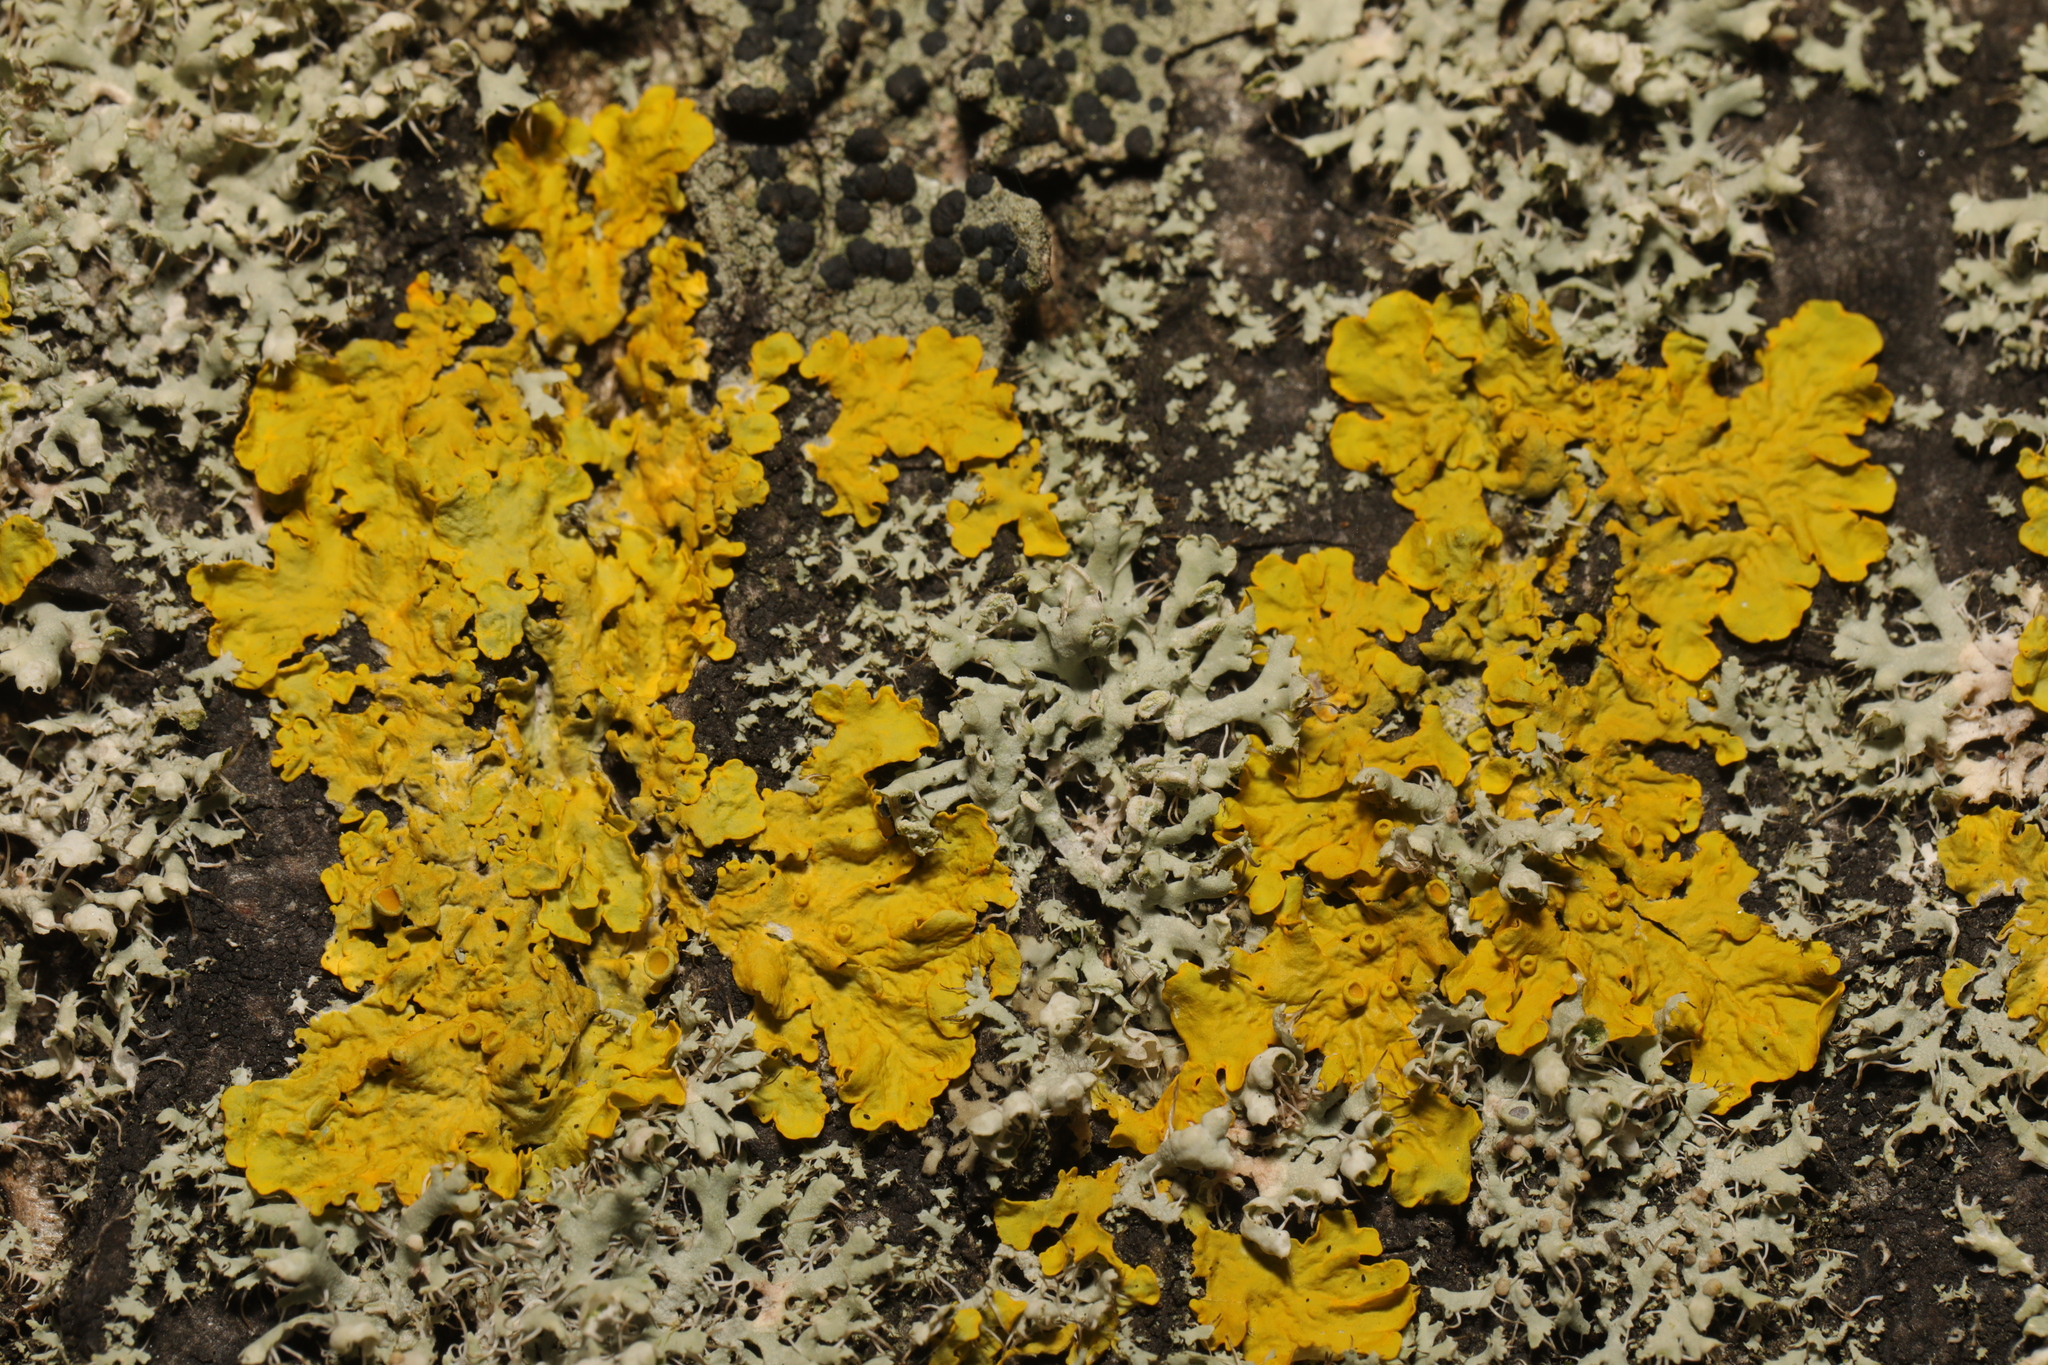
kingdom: Fungi
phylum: Ascomycota
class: Lecanoromycetes
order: Teloschistales
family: Teloschistaceae
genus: Xanthoria
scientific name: Xanthoria parietina
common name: Common orange lichen
